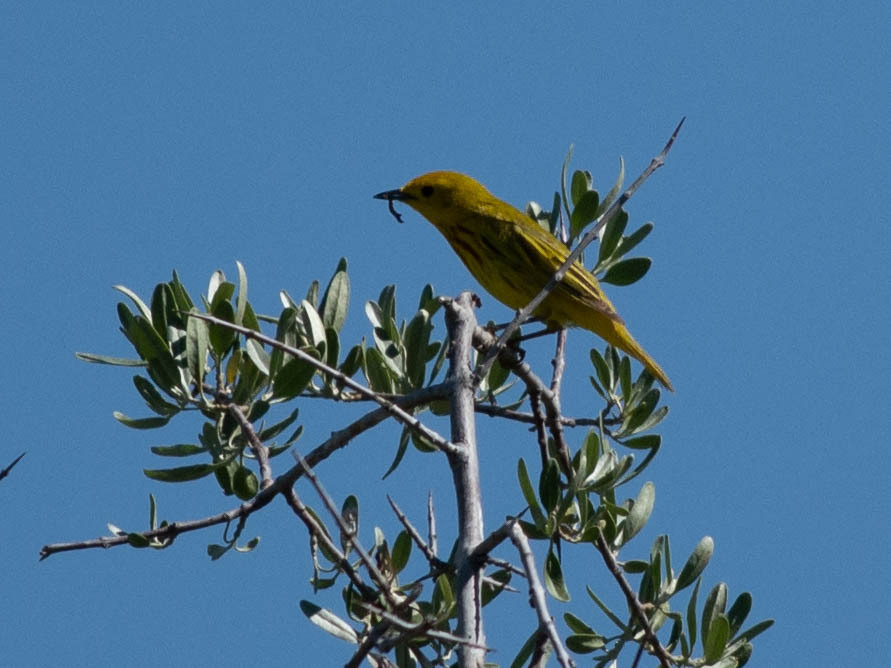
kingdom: Animalia
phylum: Chordata
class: Aves
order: Passeriformes
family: Parulidae
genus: Setophaga
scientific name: Setophaga petechia
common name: Yellow warbler
